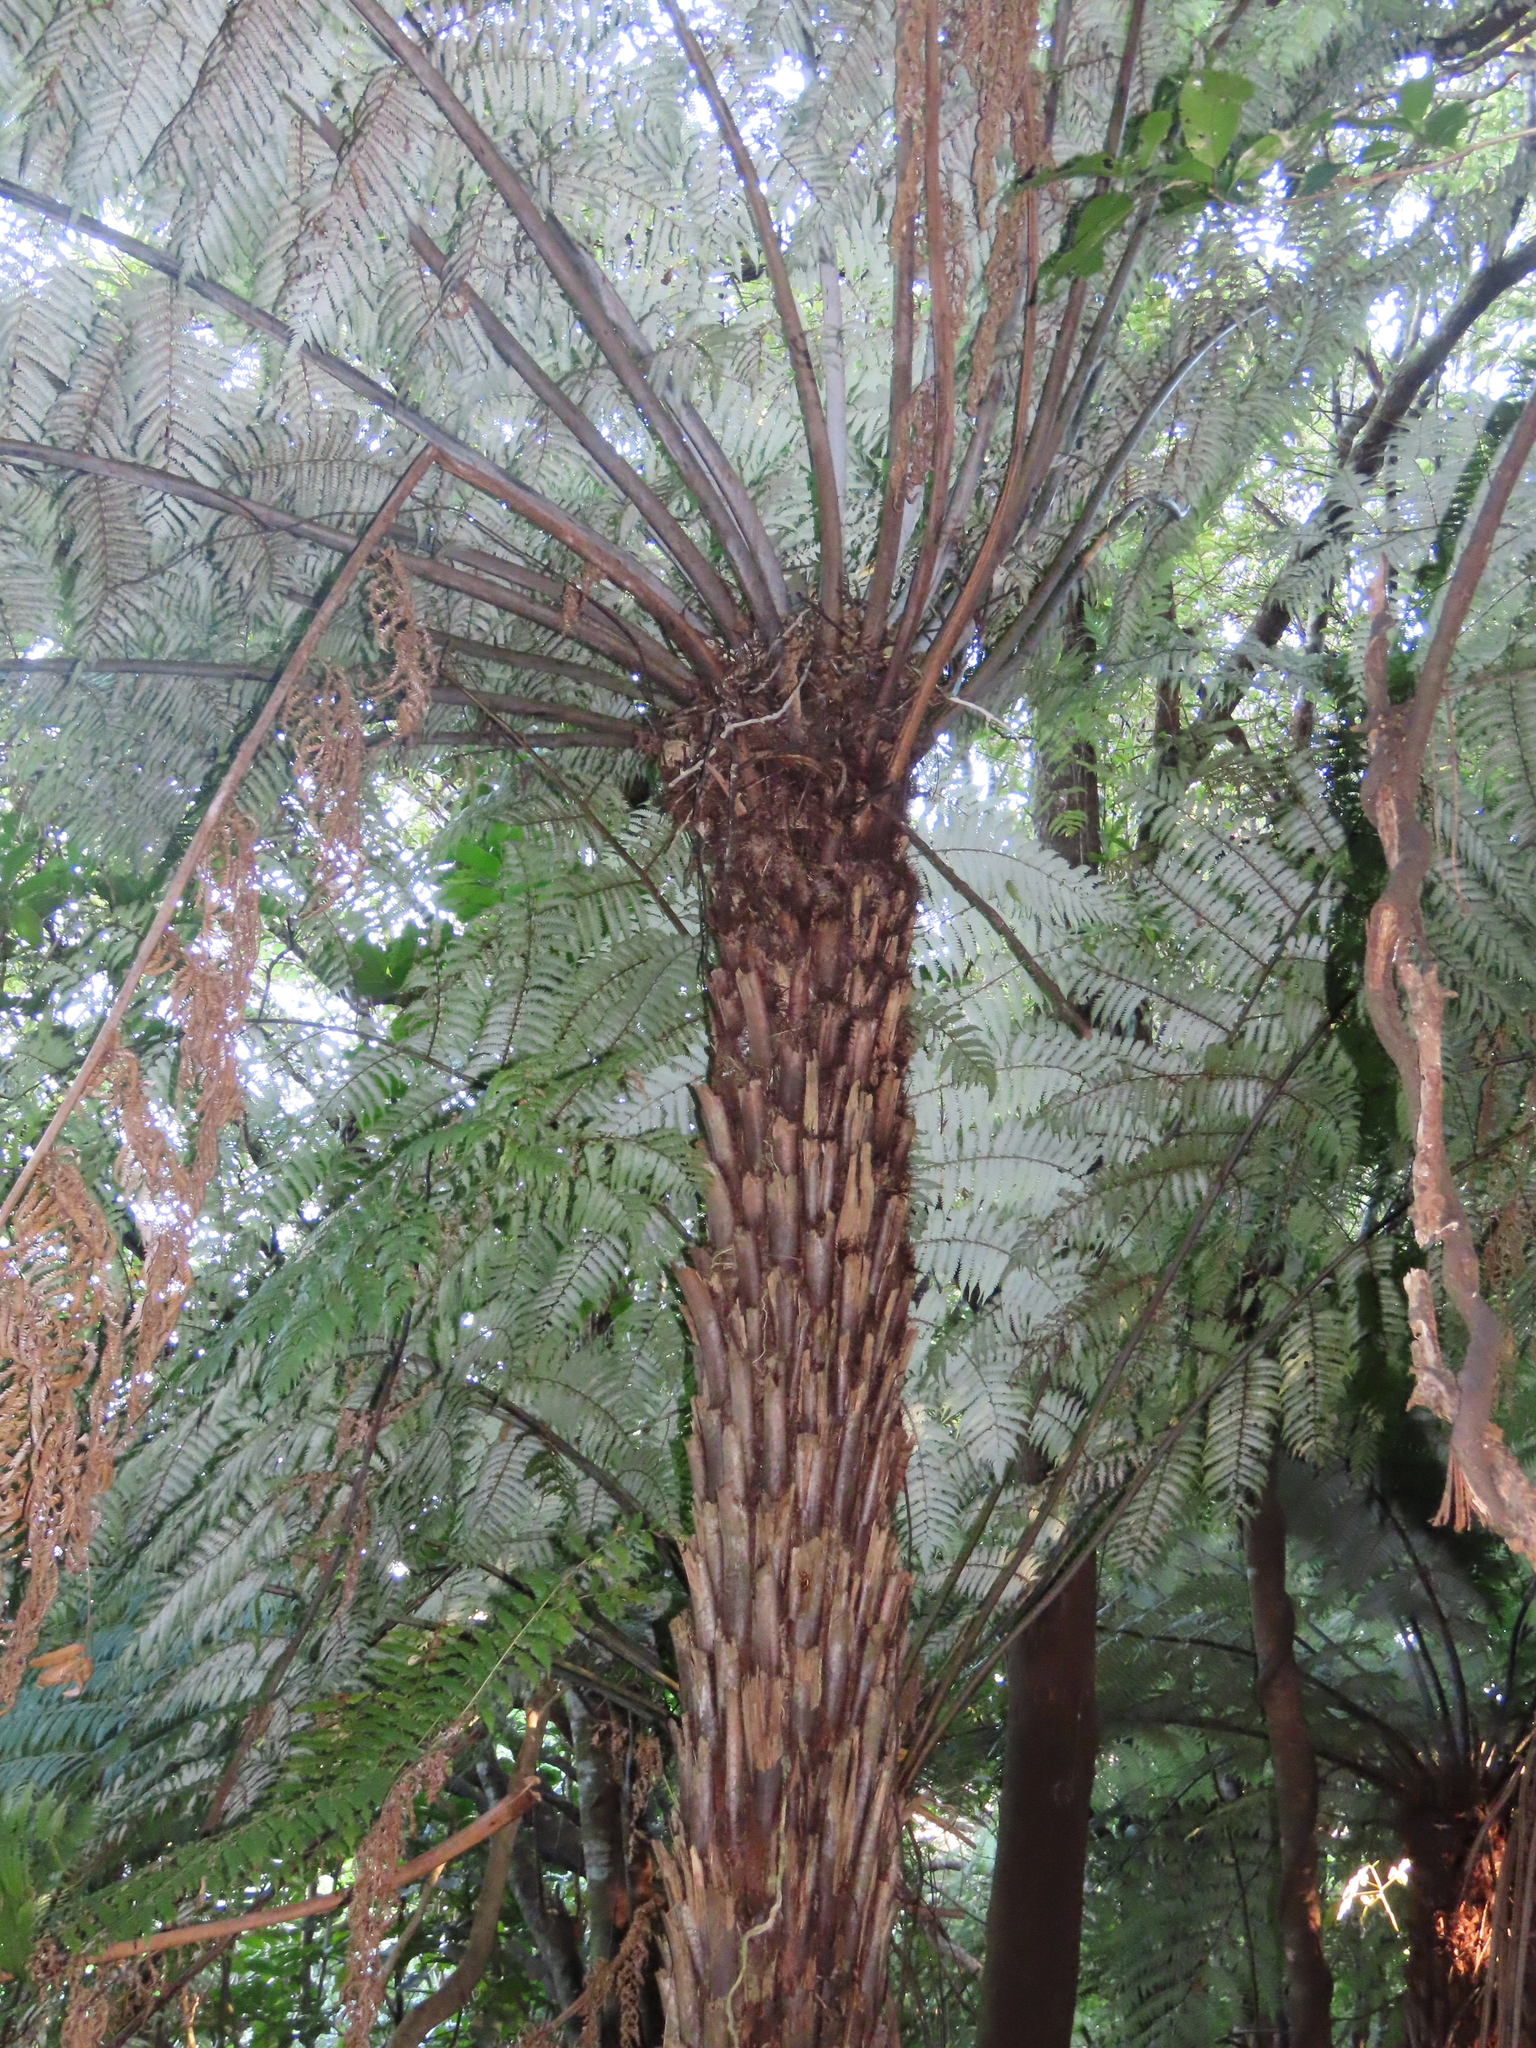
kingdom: Plantae
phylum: Tracheophyta
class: Polypodiopsida
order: Cyatheales
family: Cyatheaceae
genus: Alsophila
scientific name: Alsophila dealbata
